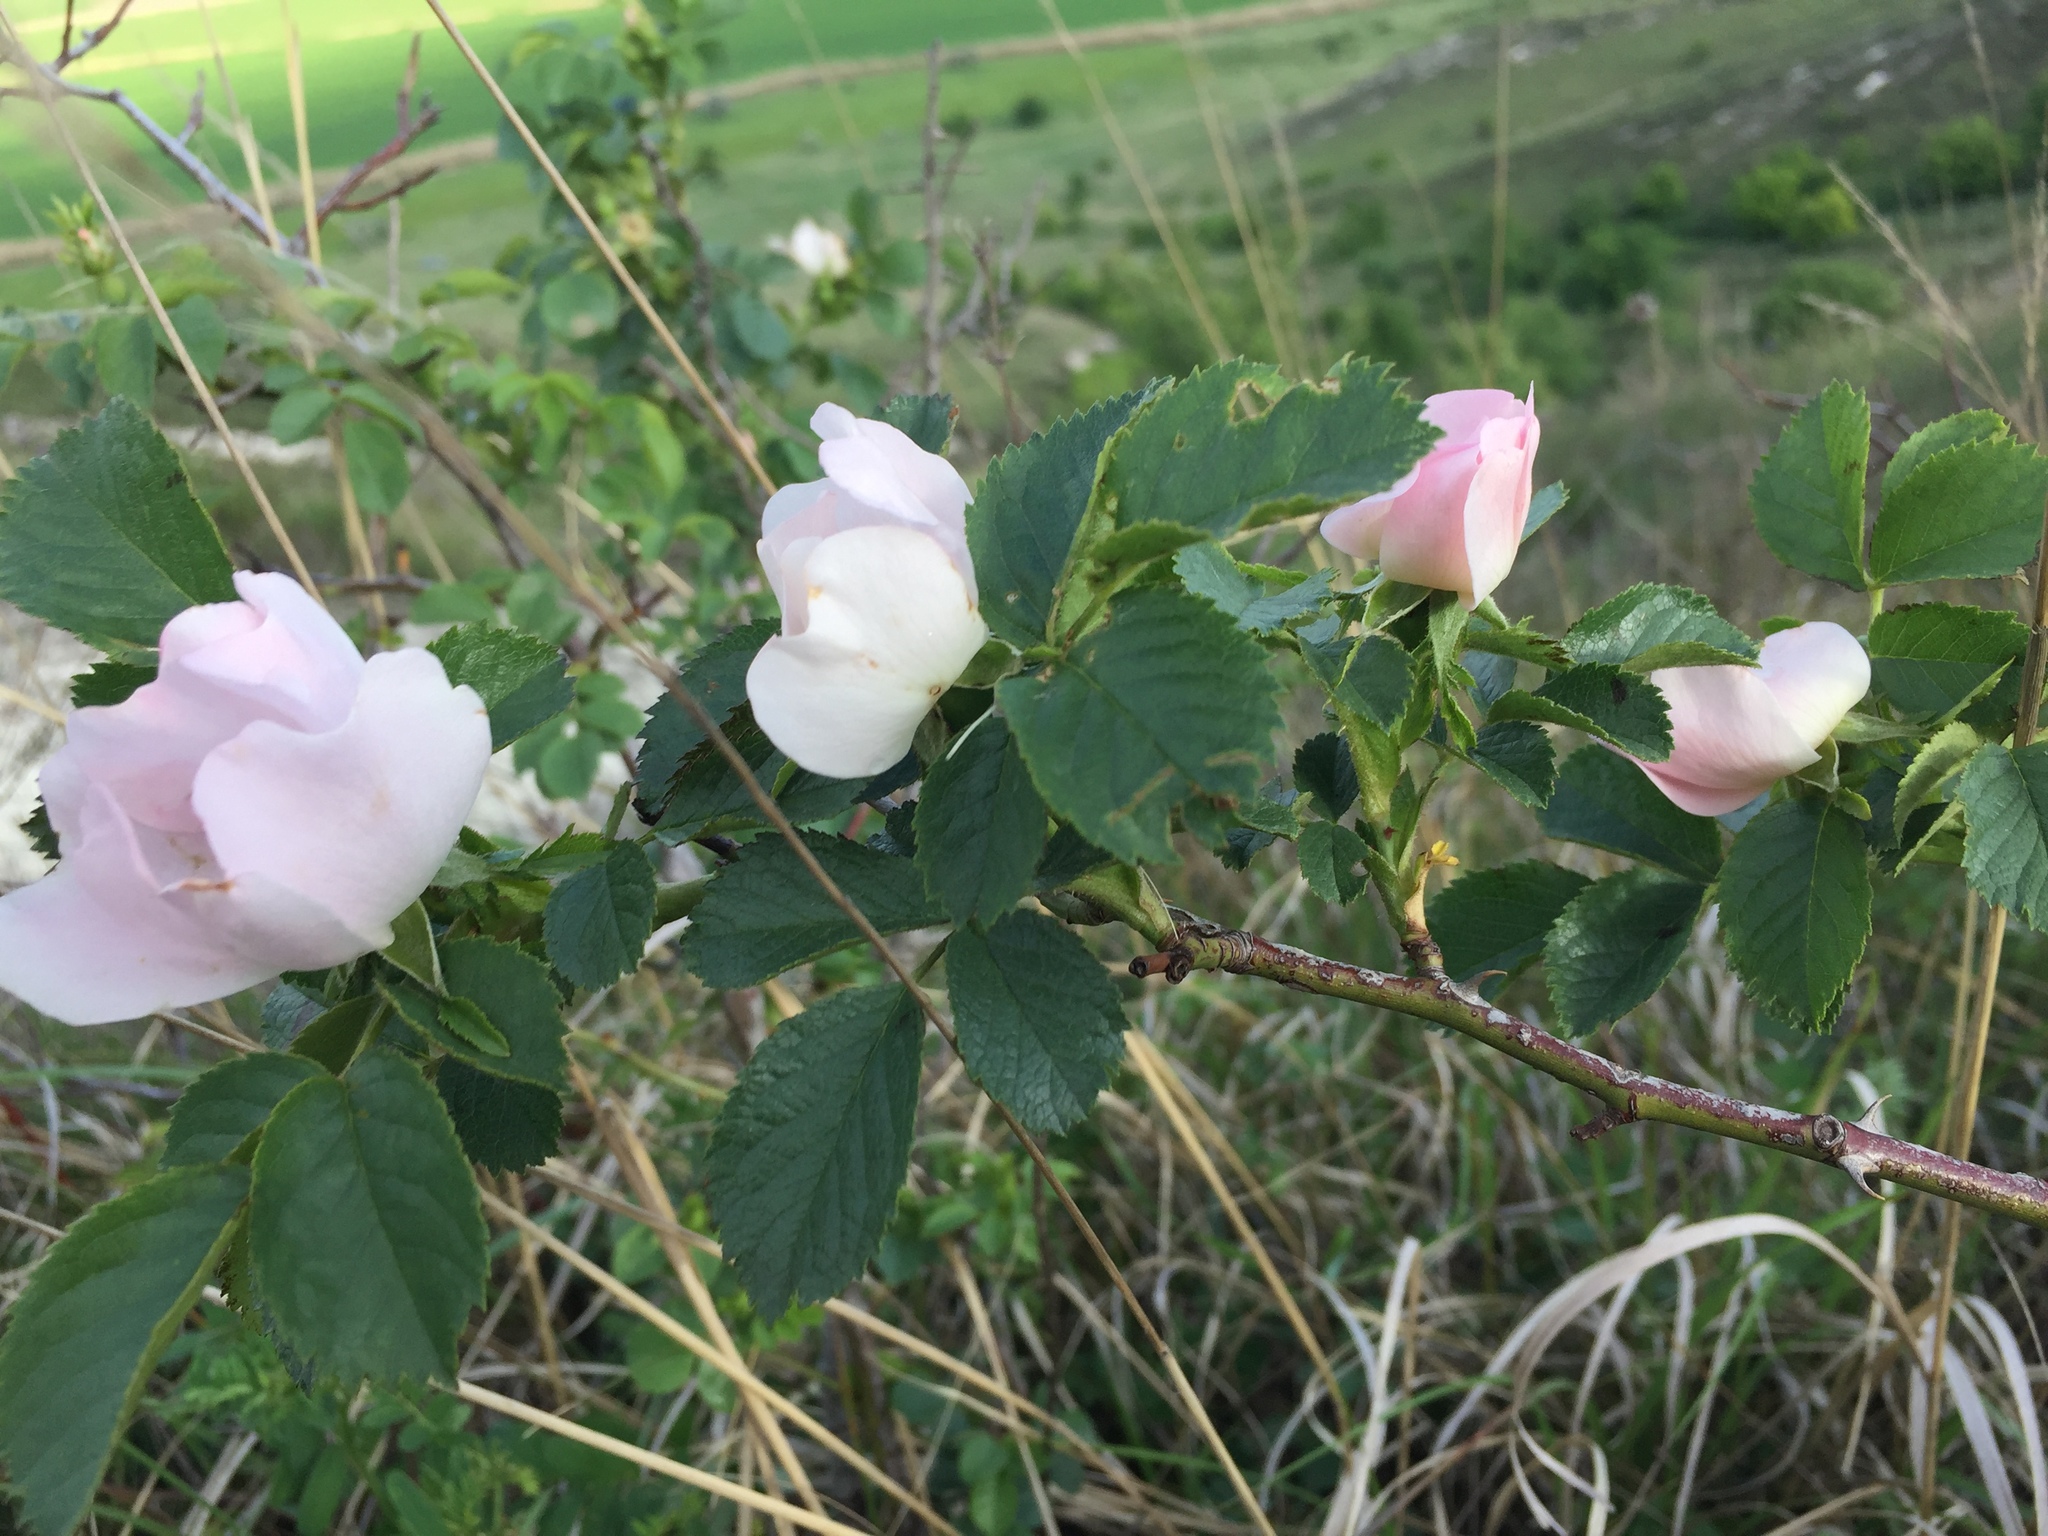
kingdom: Plantae
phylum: Tracheophyta
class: Magnoliopsida
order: Rosales
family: Rosaceae
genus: Rosa
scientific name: Rosa canina
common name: Dog rose
